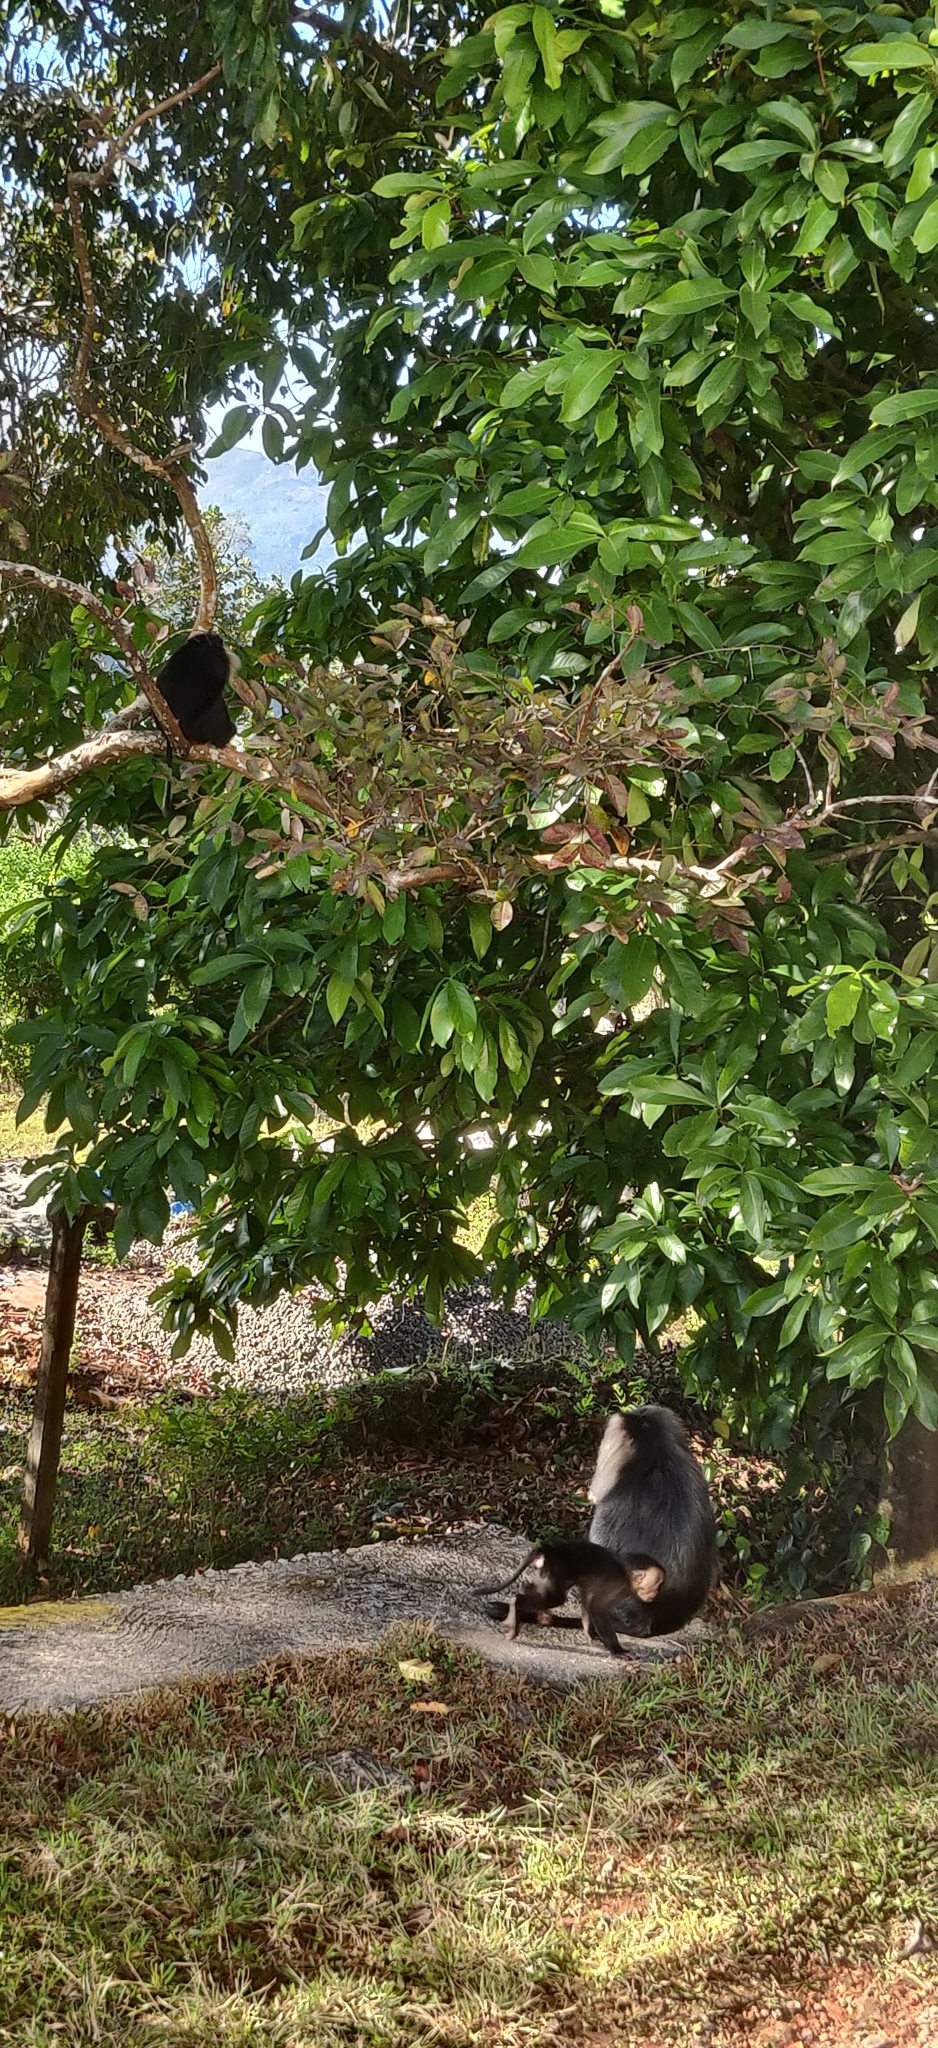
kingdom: Animalia
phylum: Chordata
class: Mammalia
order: Primates
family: Cercopithecidae
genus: Macaca
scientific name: Macaca silenus
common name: Lion-tailed macaque
